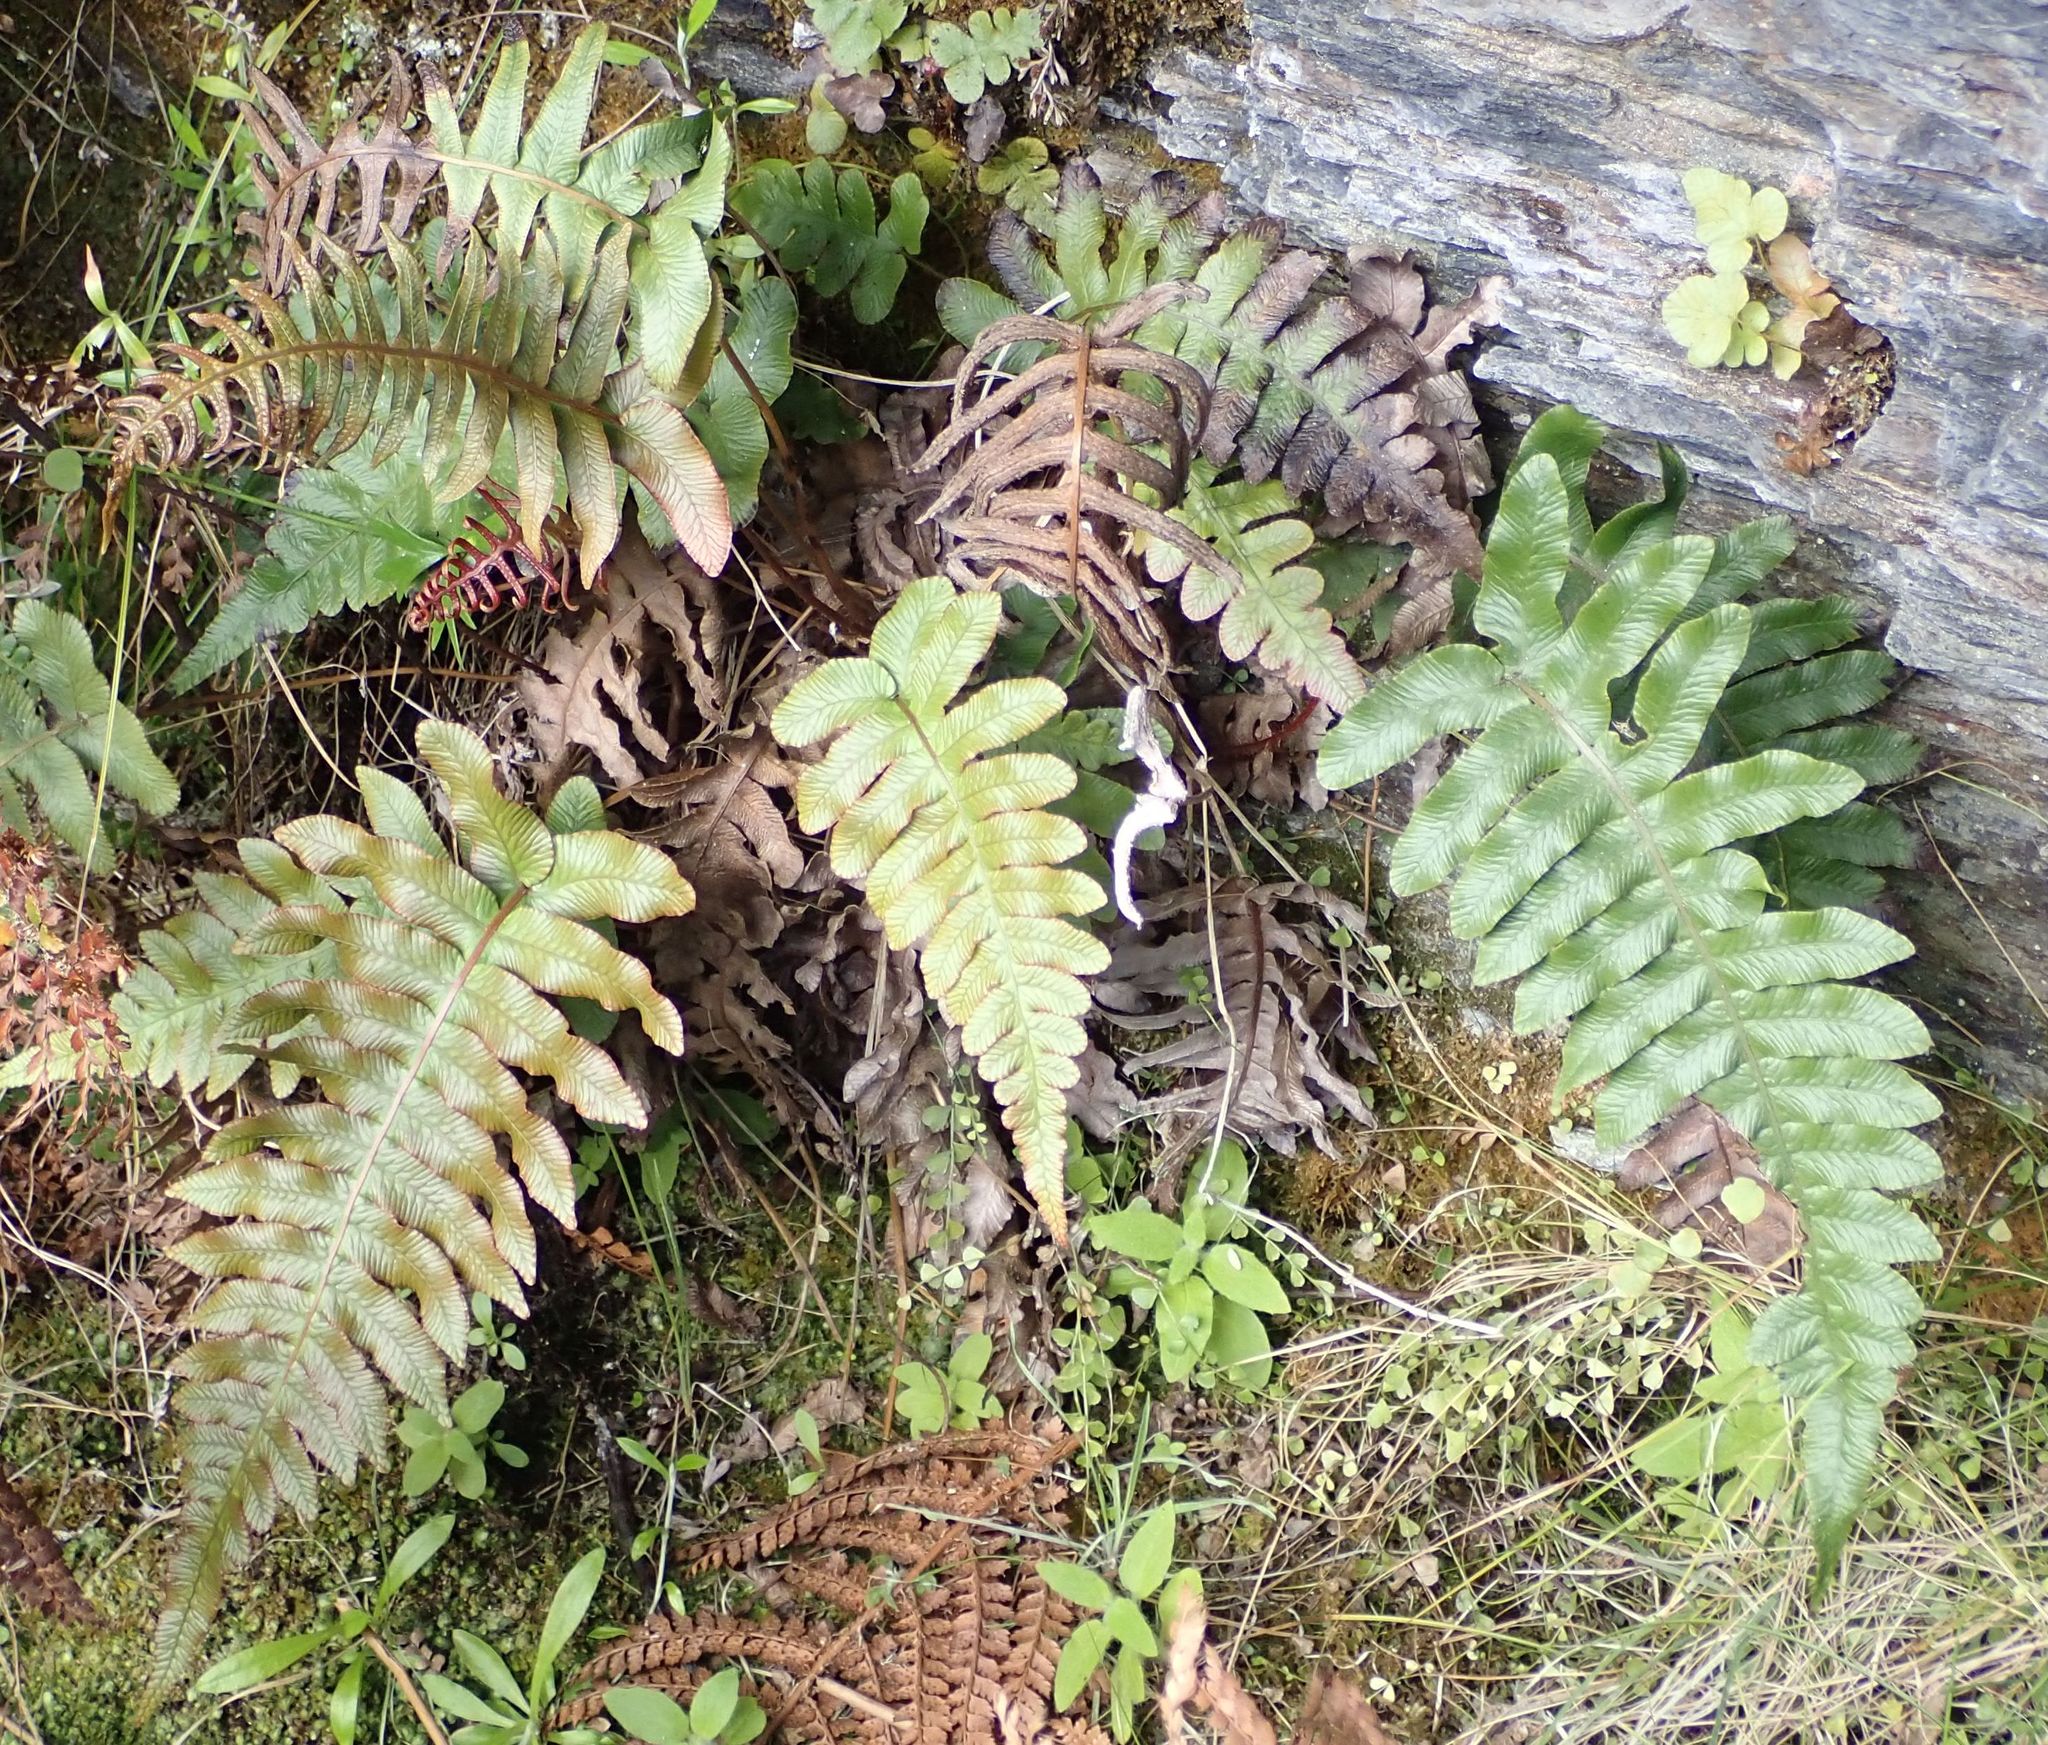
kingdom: Plantae
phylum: Tracheophyta
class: Polypodiopsida
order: Polypodiales
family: Blechnaceae
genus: Cranfillia
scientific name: Cranfillia deltoides
